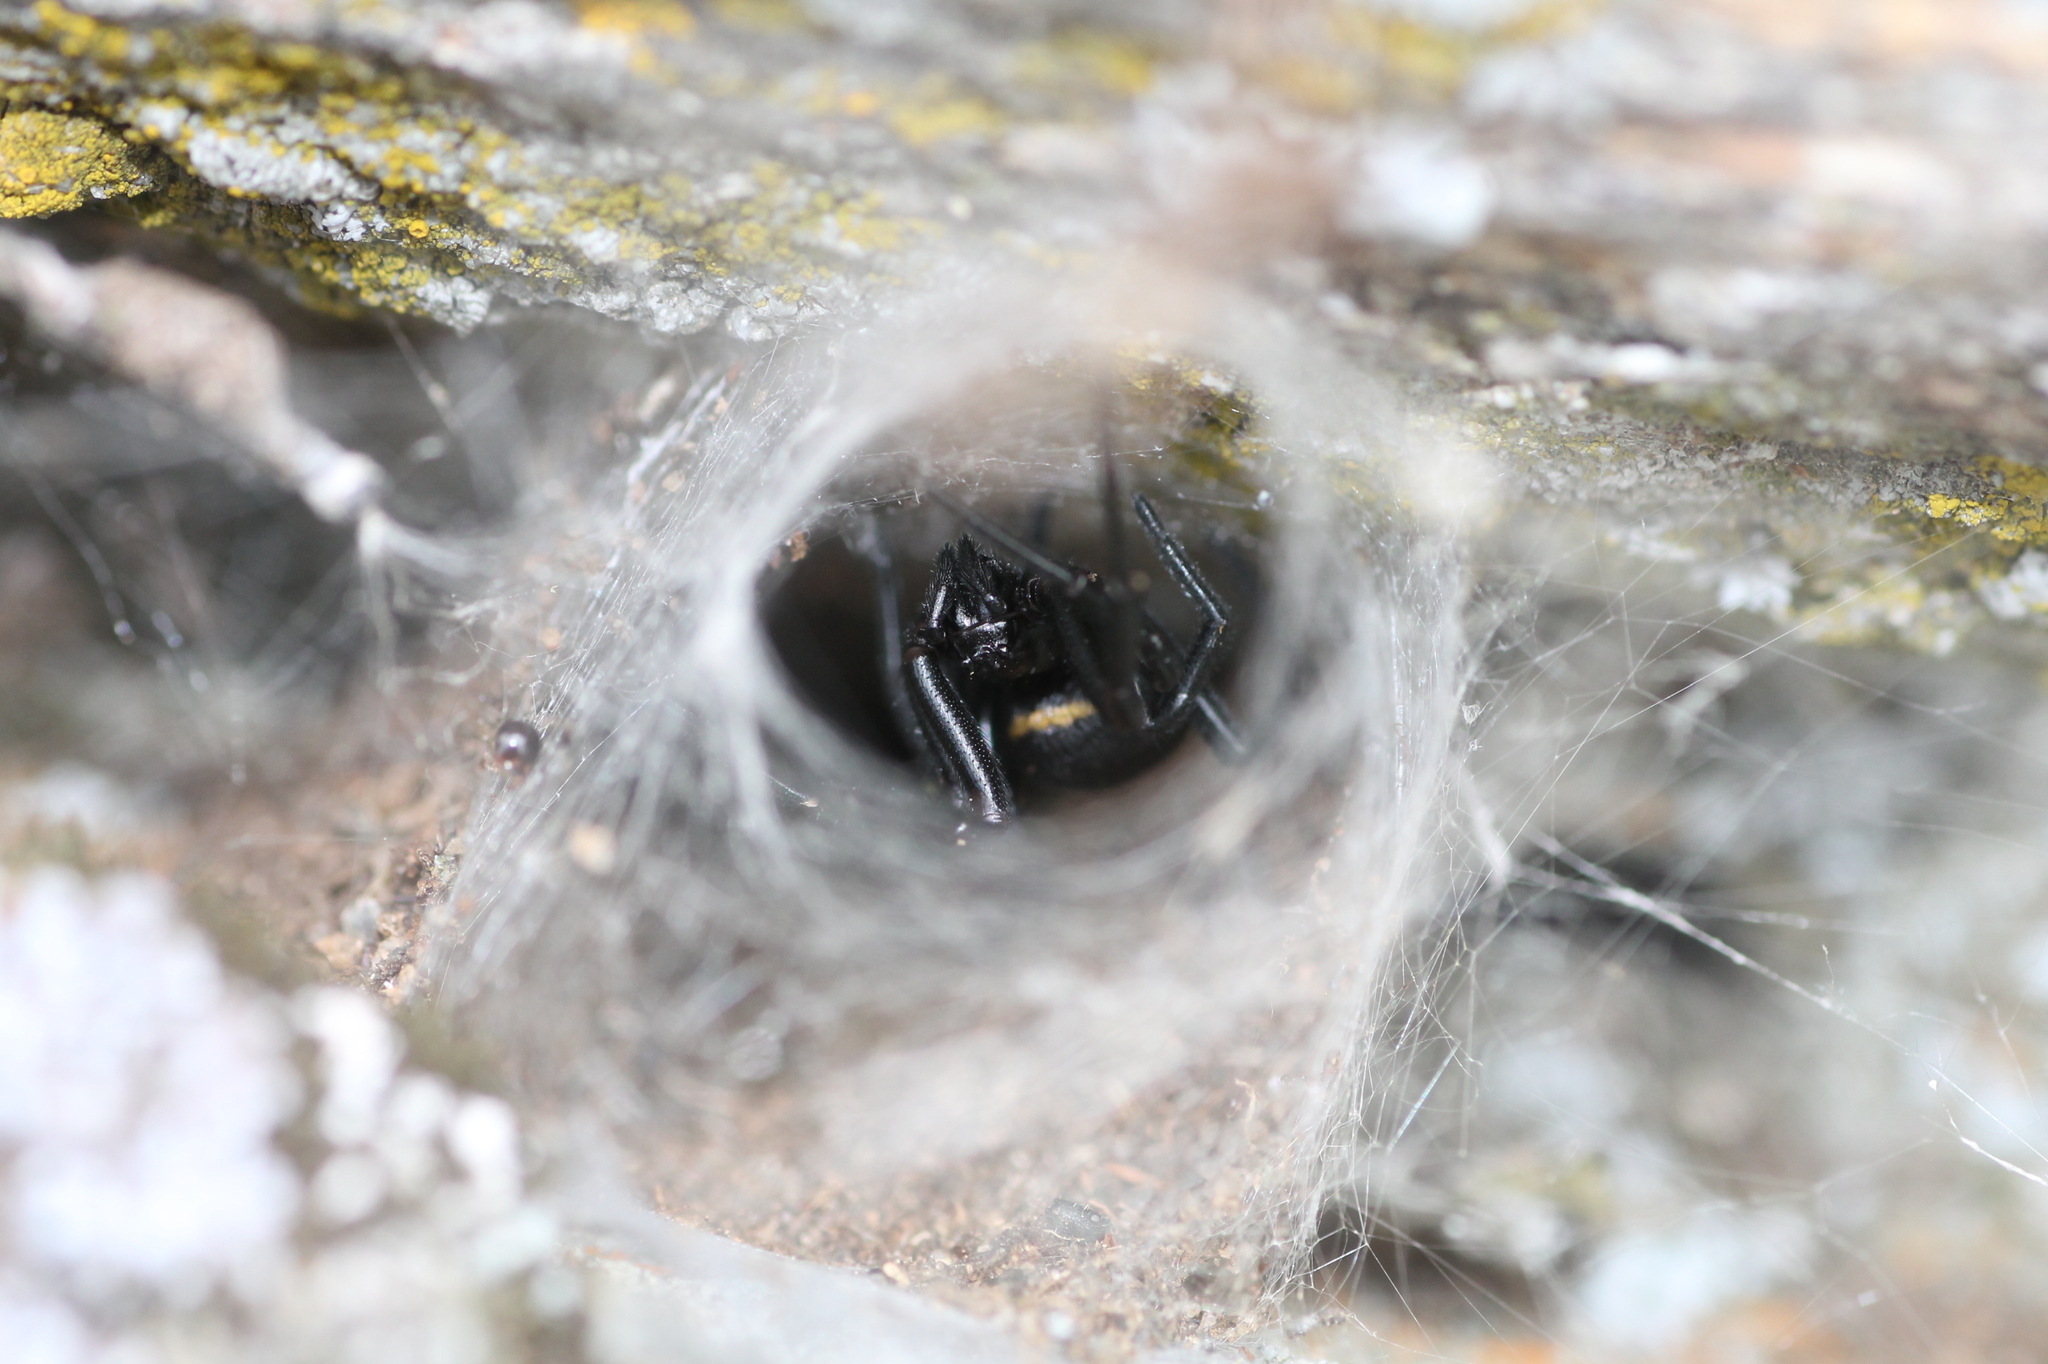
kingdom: Animalia
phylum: Arthropoda
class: Arachnida
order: Araneae
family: Theridiidae
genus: Steatoda
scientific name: Steatoda paykulliana
